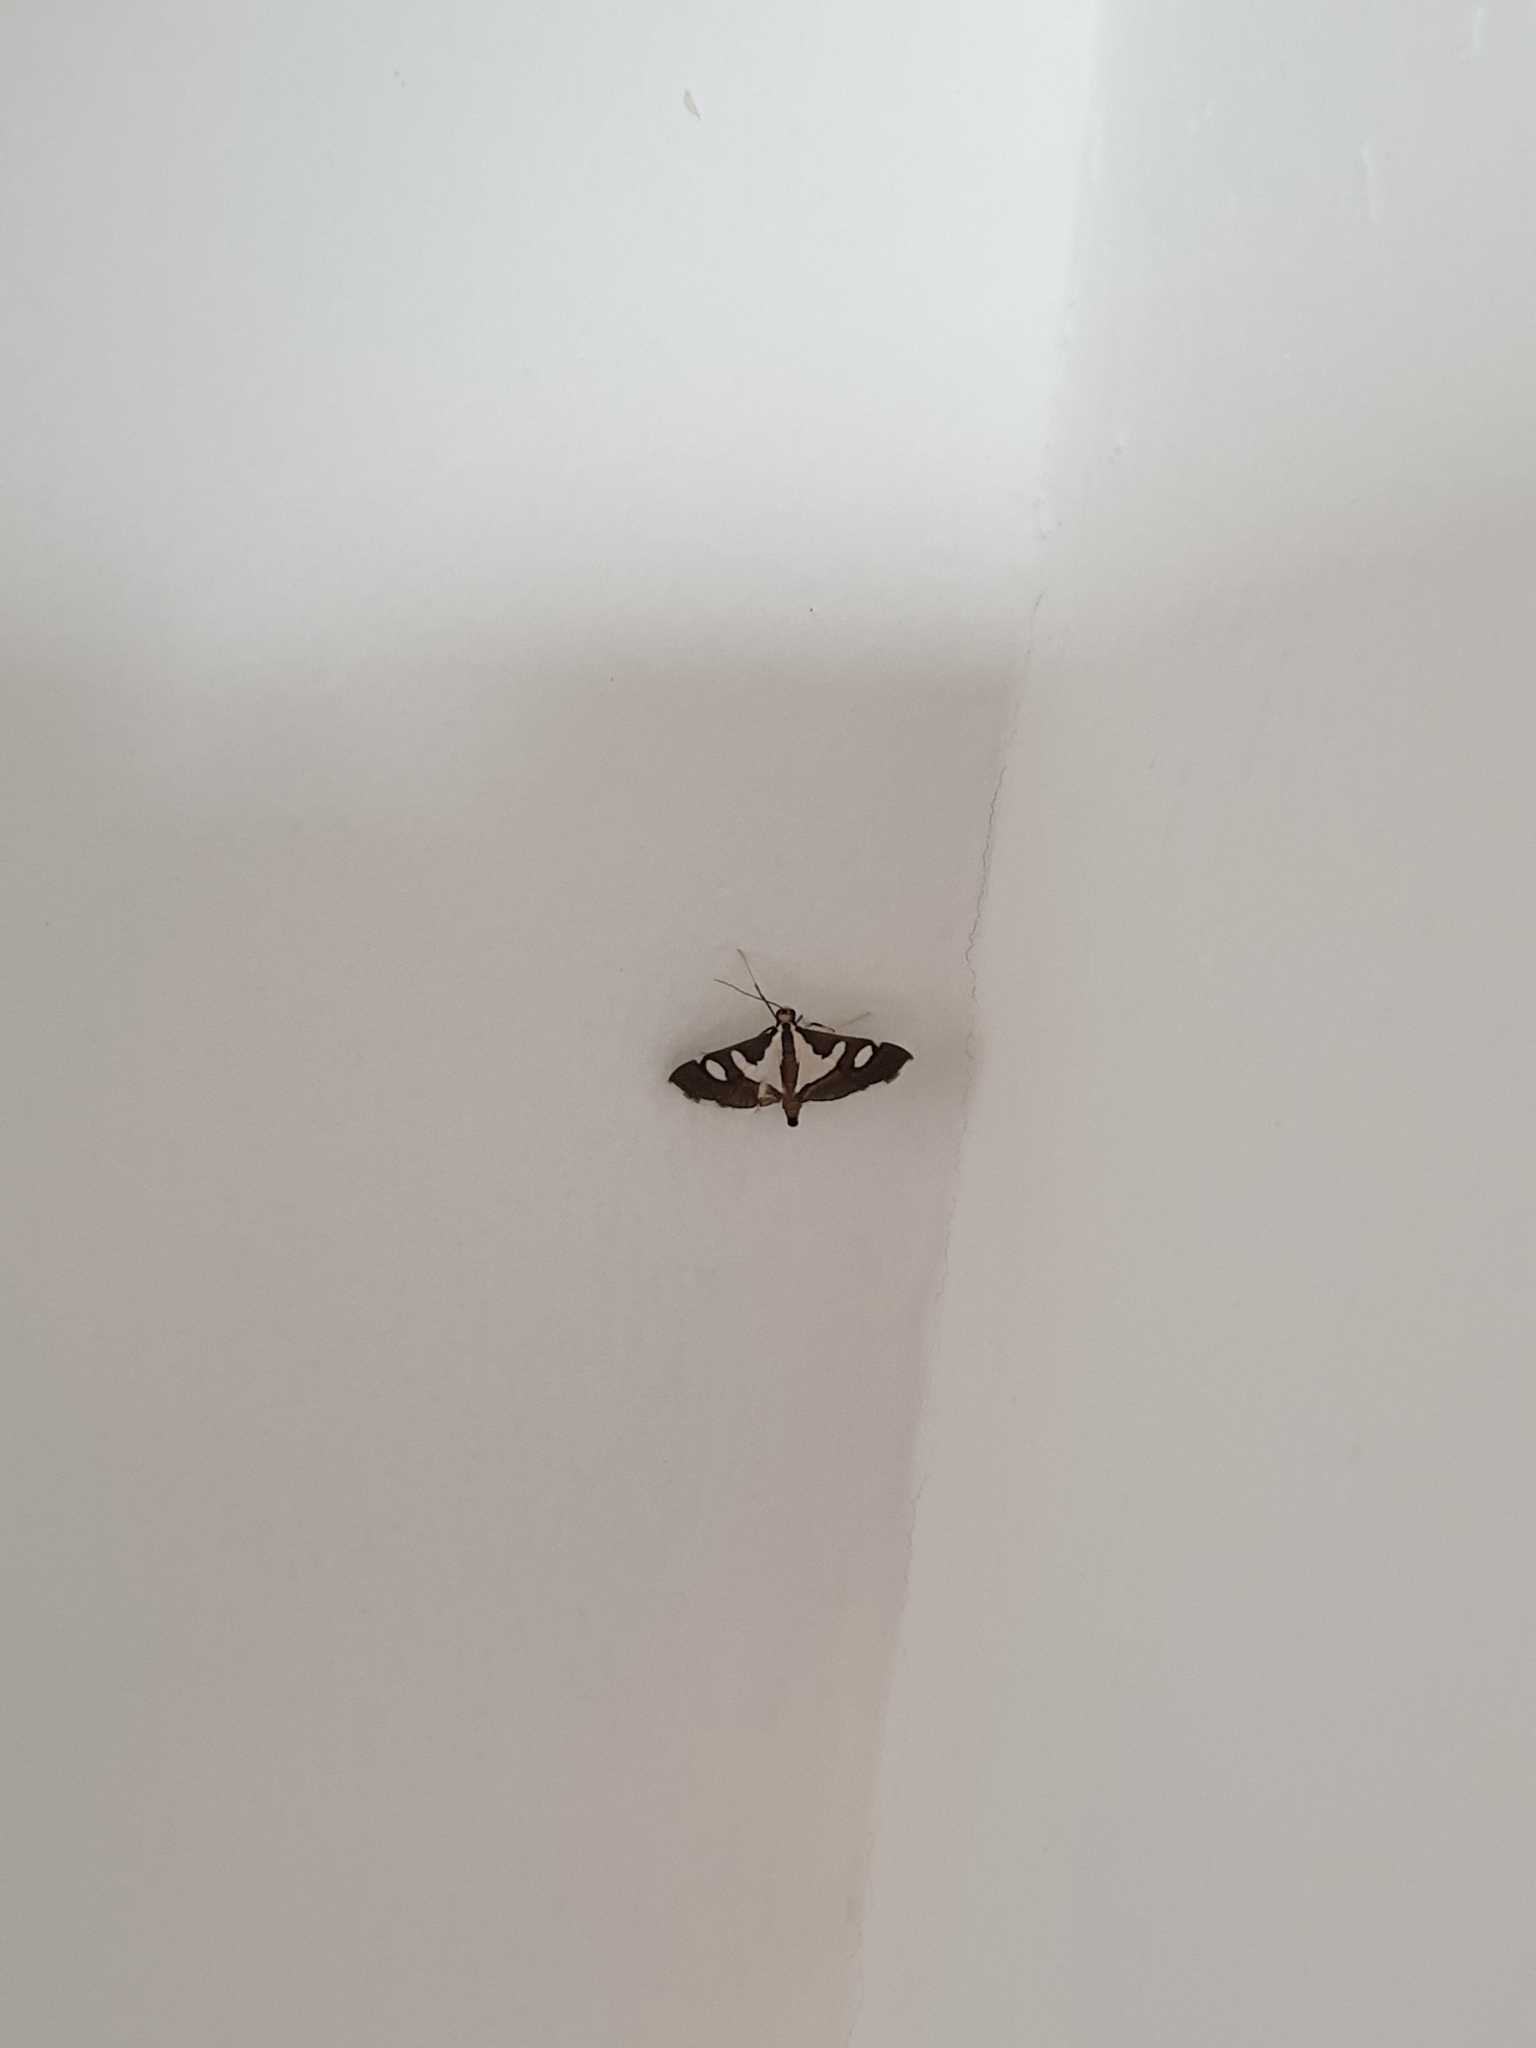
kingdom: Animalia
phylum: Arthropoda
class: Insecta
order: Lepidoptera
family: Crambidae
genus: Glyphodes
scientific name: Glyphodes bicolor
